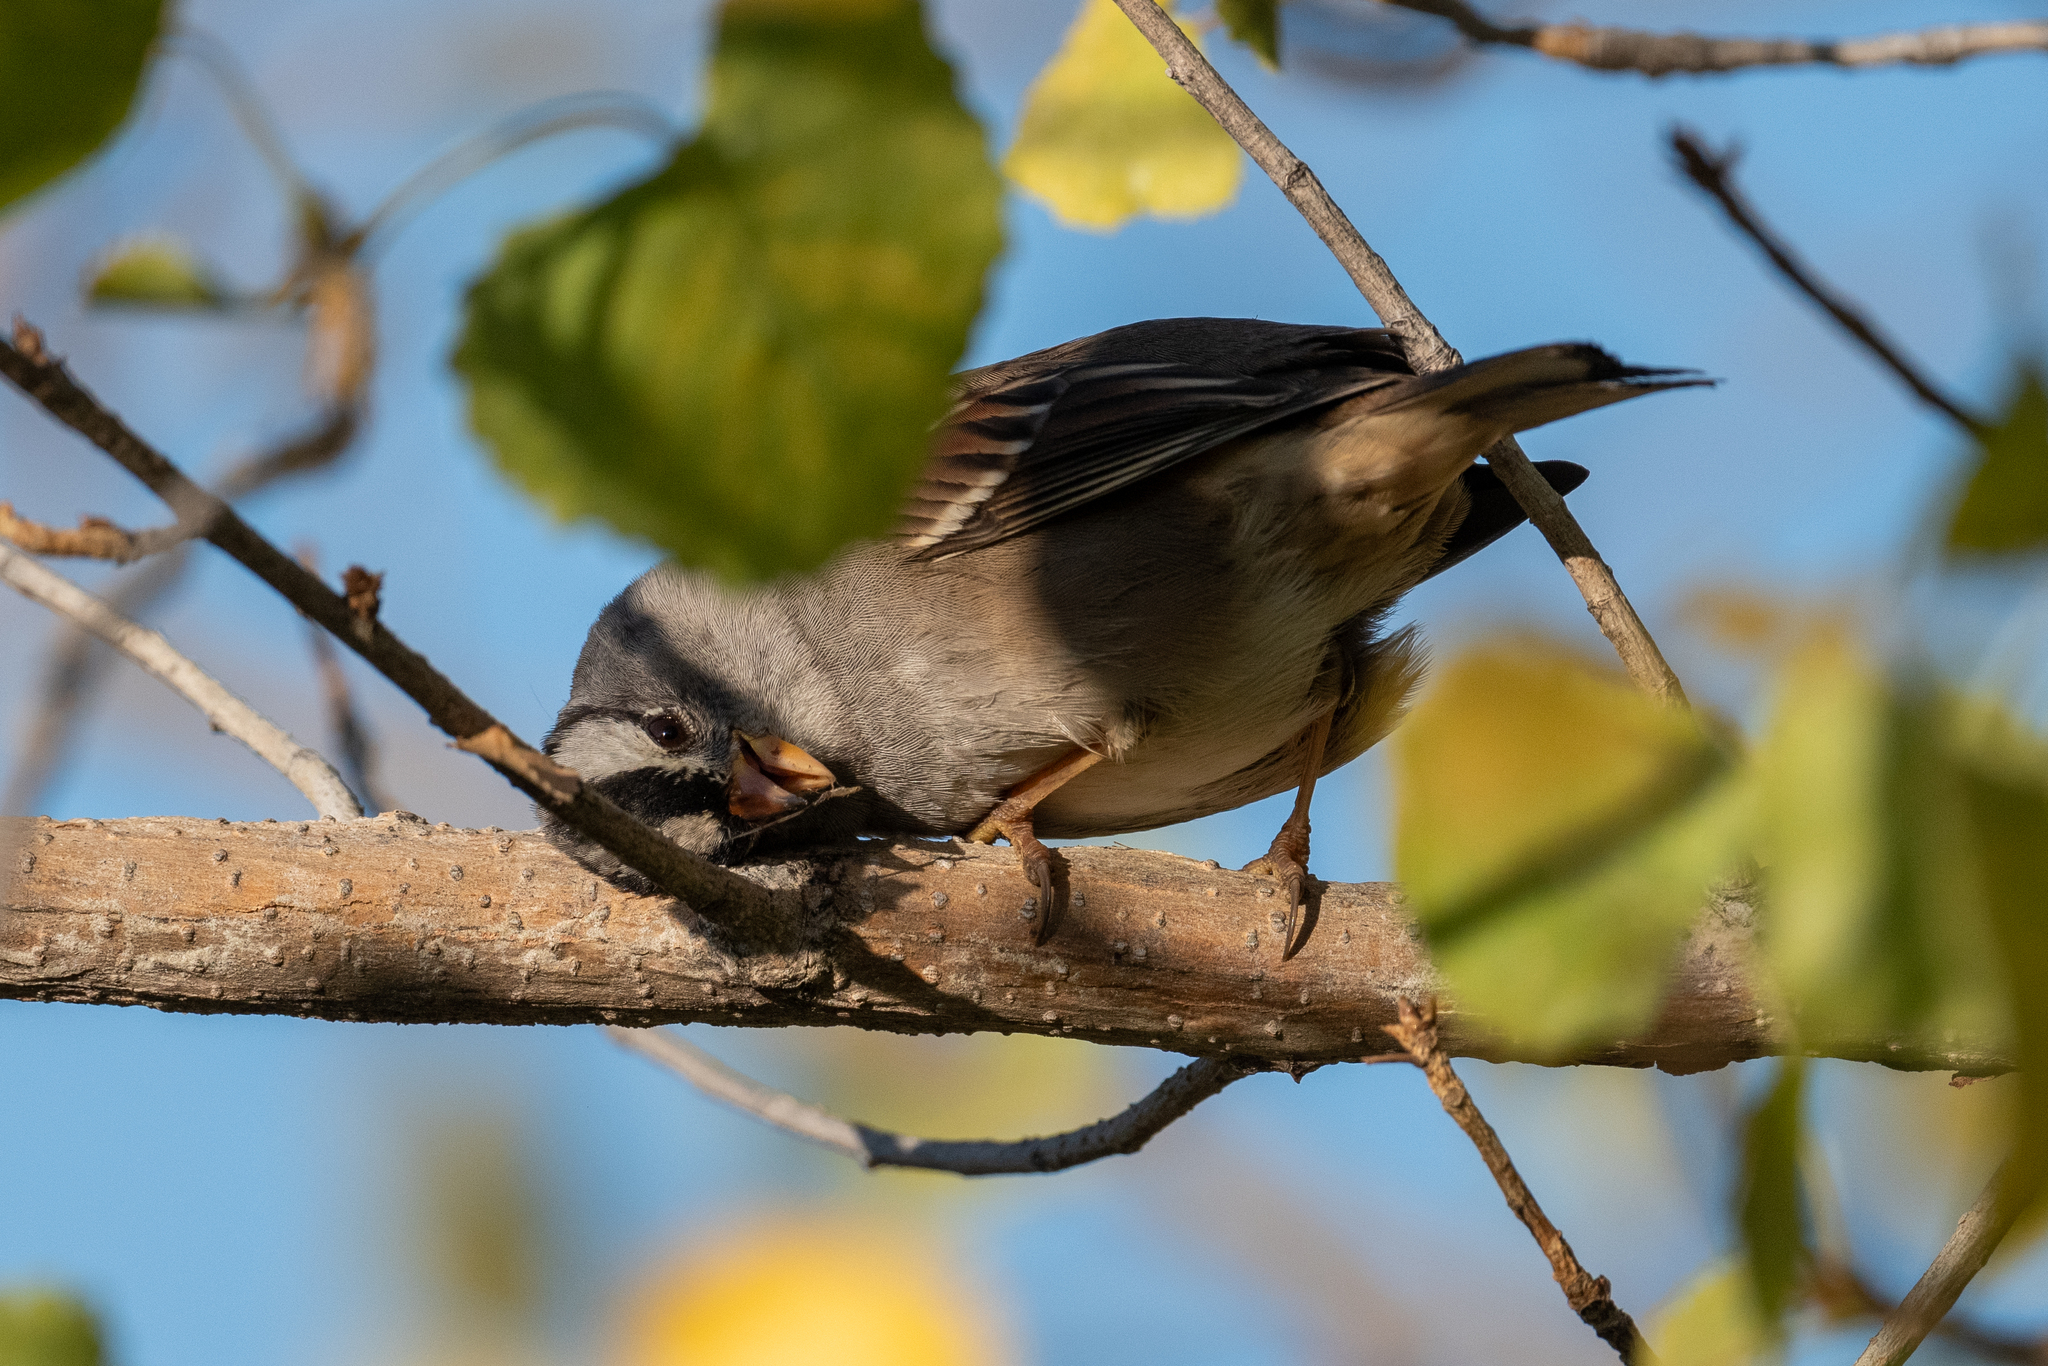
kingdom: Animalia
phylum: Chordata
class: Aves
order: Passeriformes
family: Passerellidae
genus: Zonotrichia
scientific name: Zonotrichia leucophrys
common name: White-crowned sparrow
